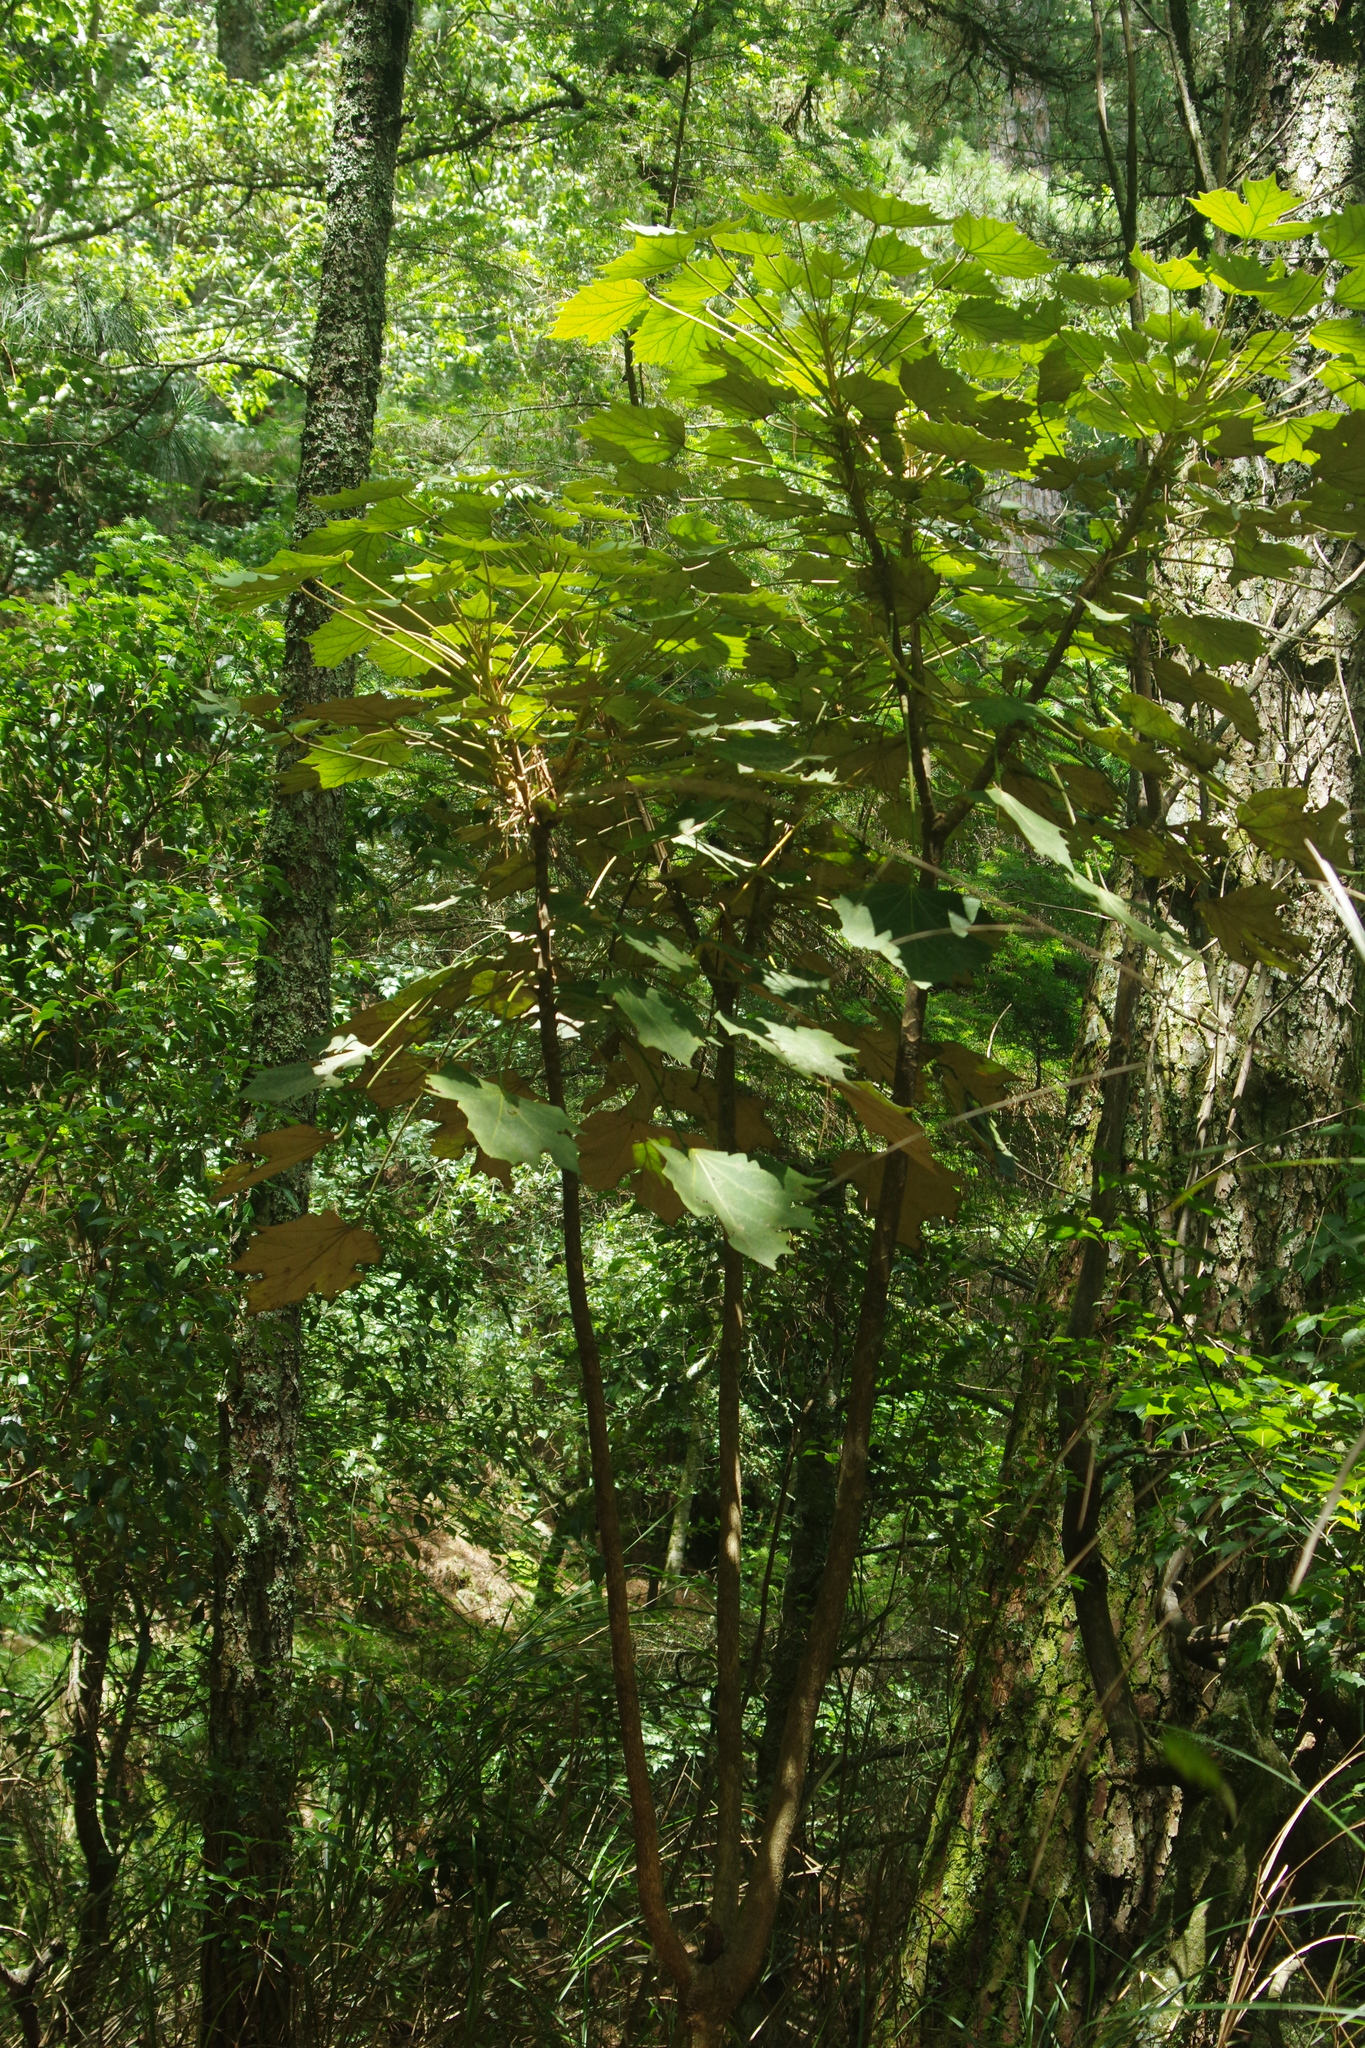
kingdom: Plantae
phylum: Tracheophyta
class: Magnoliopsida
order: Apiales
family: Araliaceae
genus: Sinopanax
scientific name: Sinopanax formosanus
